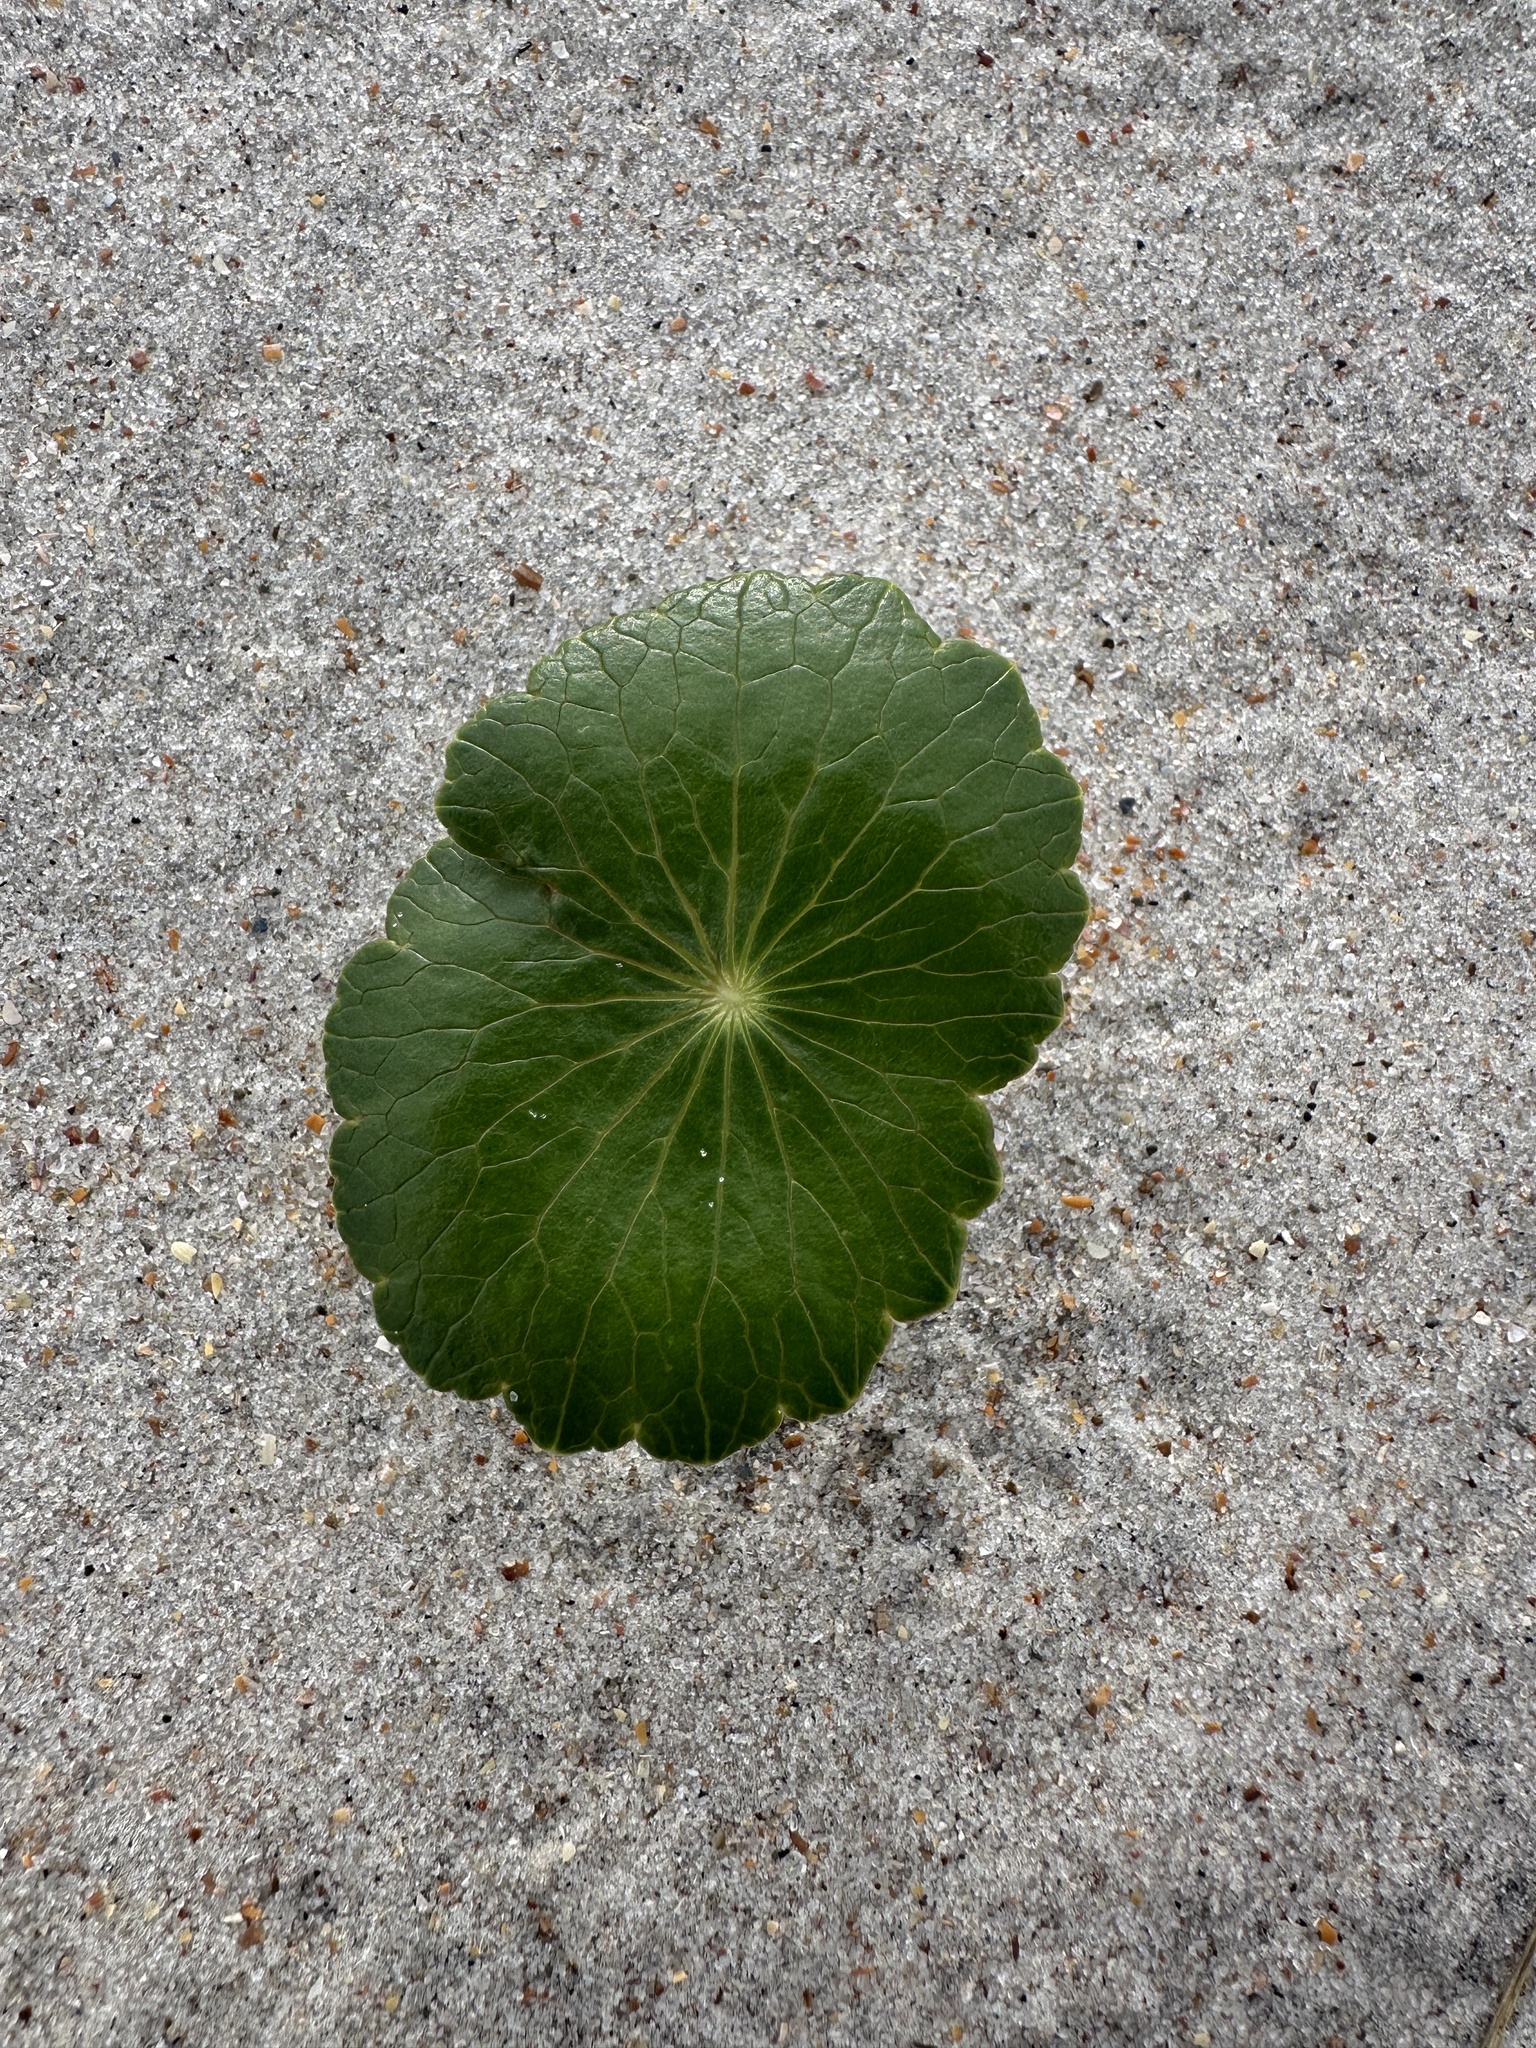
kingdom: Plantae
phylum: Tracheophyta
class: Magnoliopsida
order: Apiales
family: Araliaceae
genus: Hydrocotyle
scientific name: Hydrocotyle bonariensis
